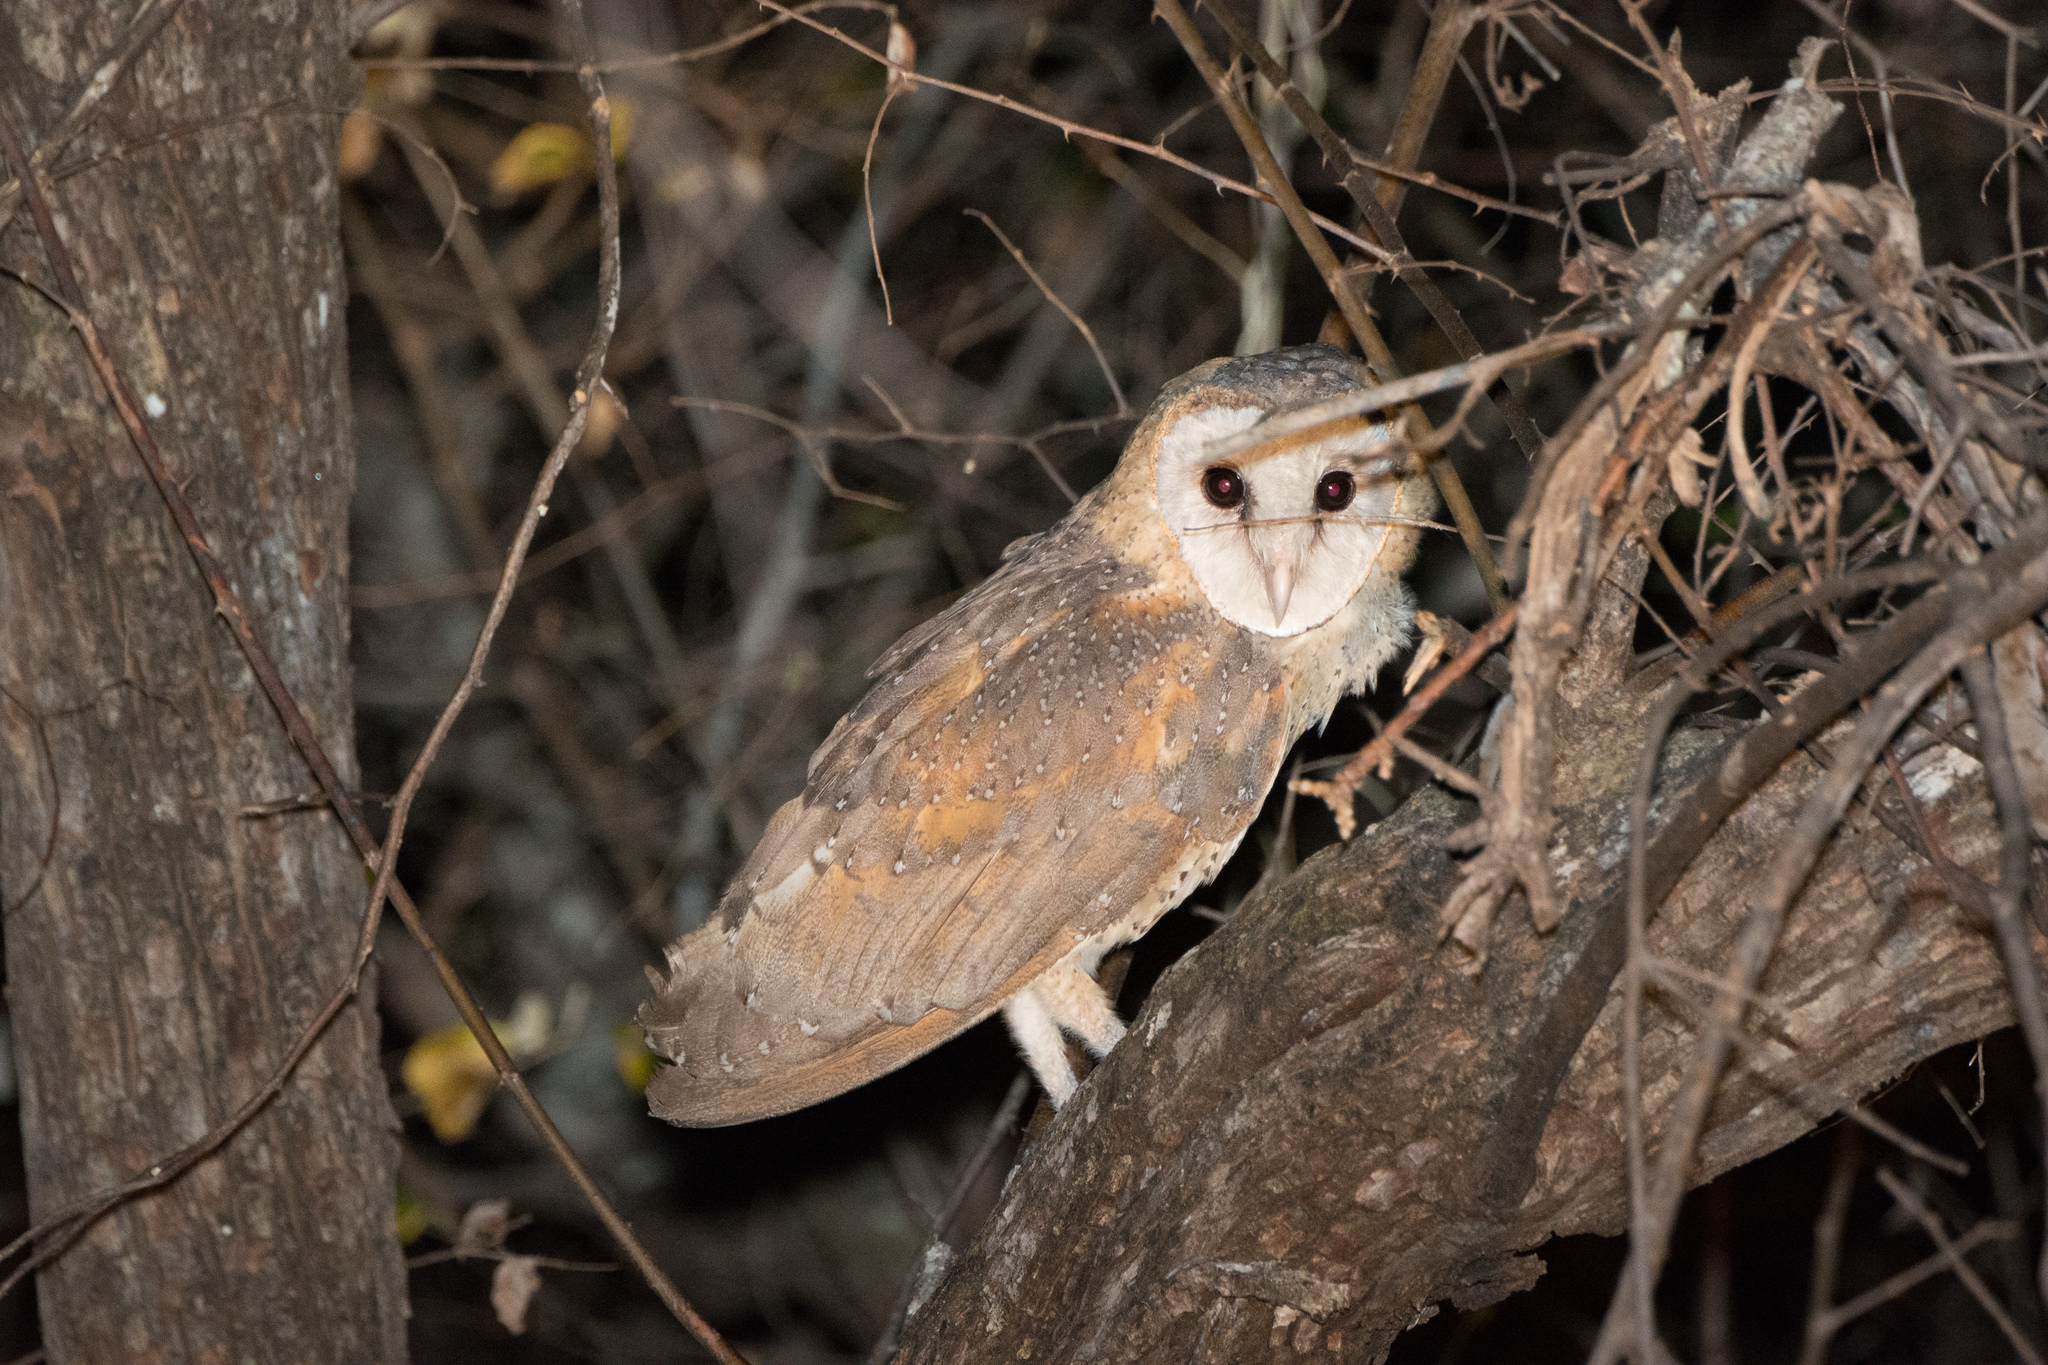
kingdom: Animalia
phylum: Chordata
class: Aves
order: Strigiformes
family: Tytonidae
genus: Tyto
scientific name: Tyto alba
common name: Barn owl
